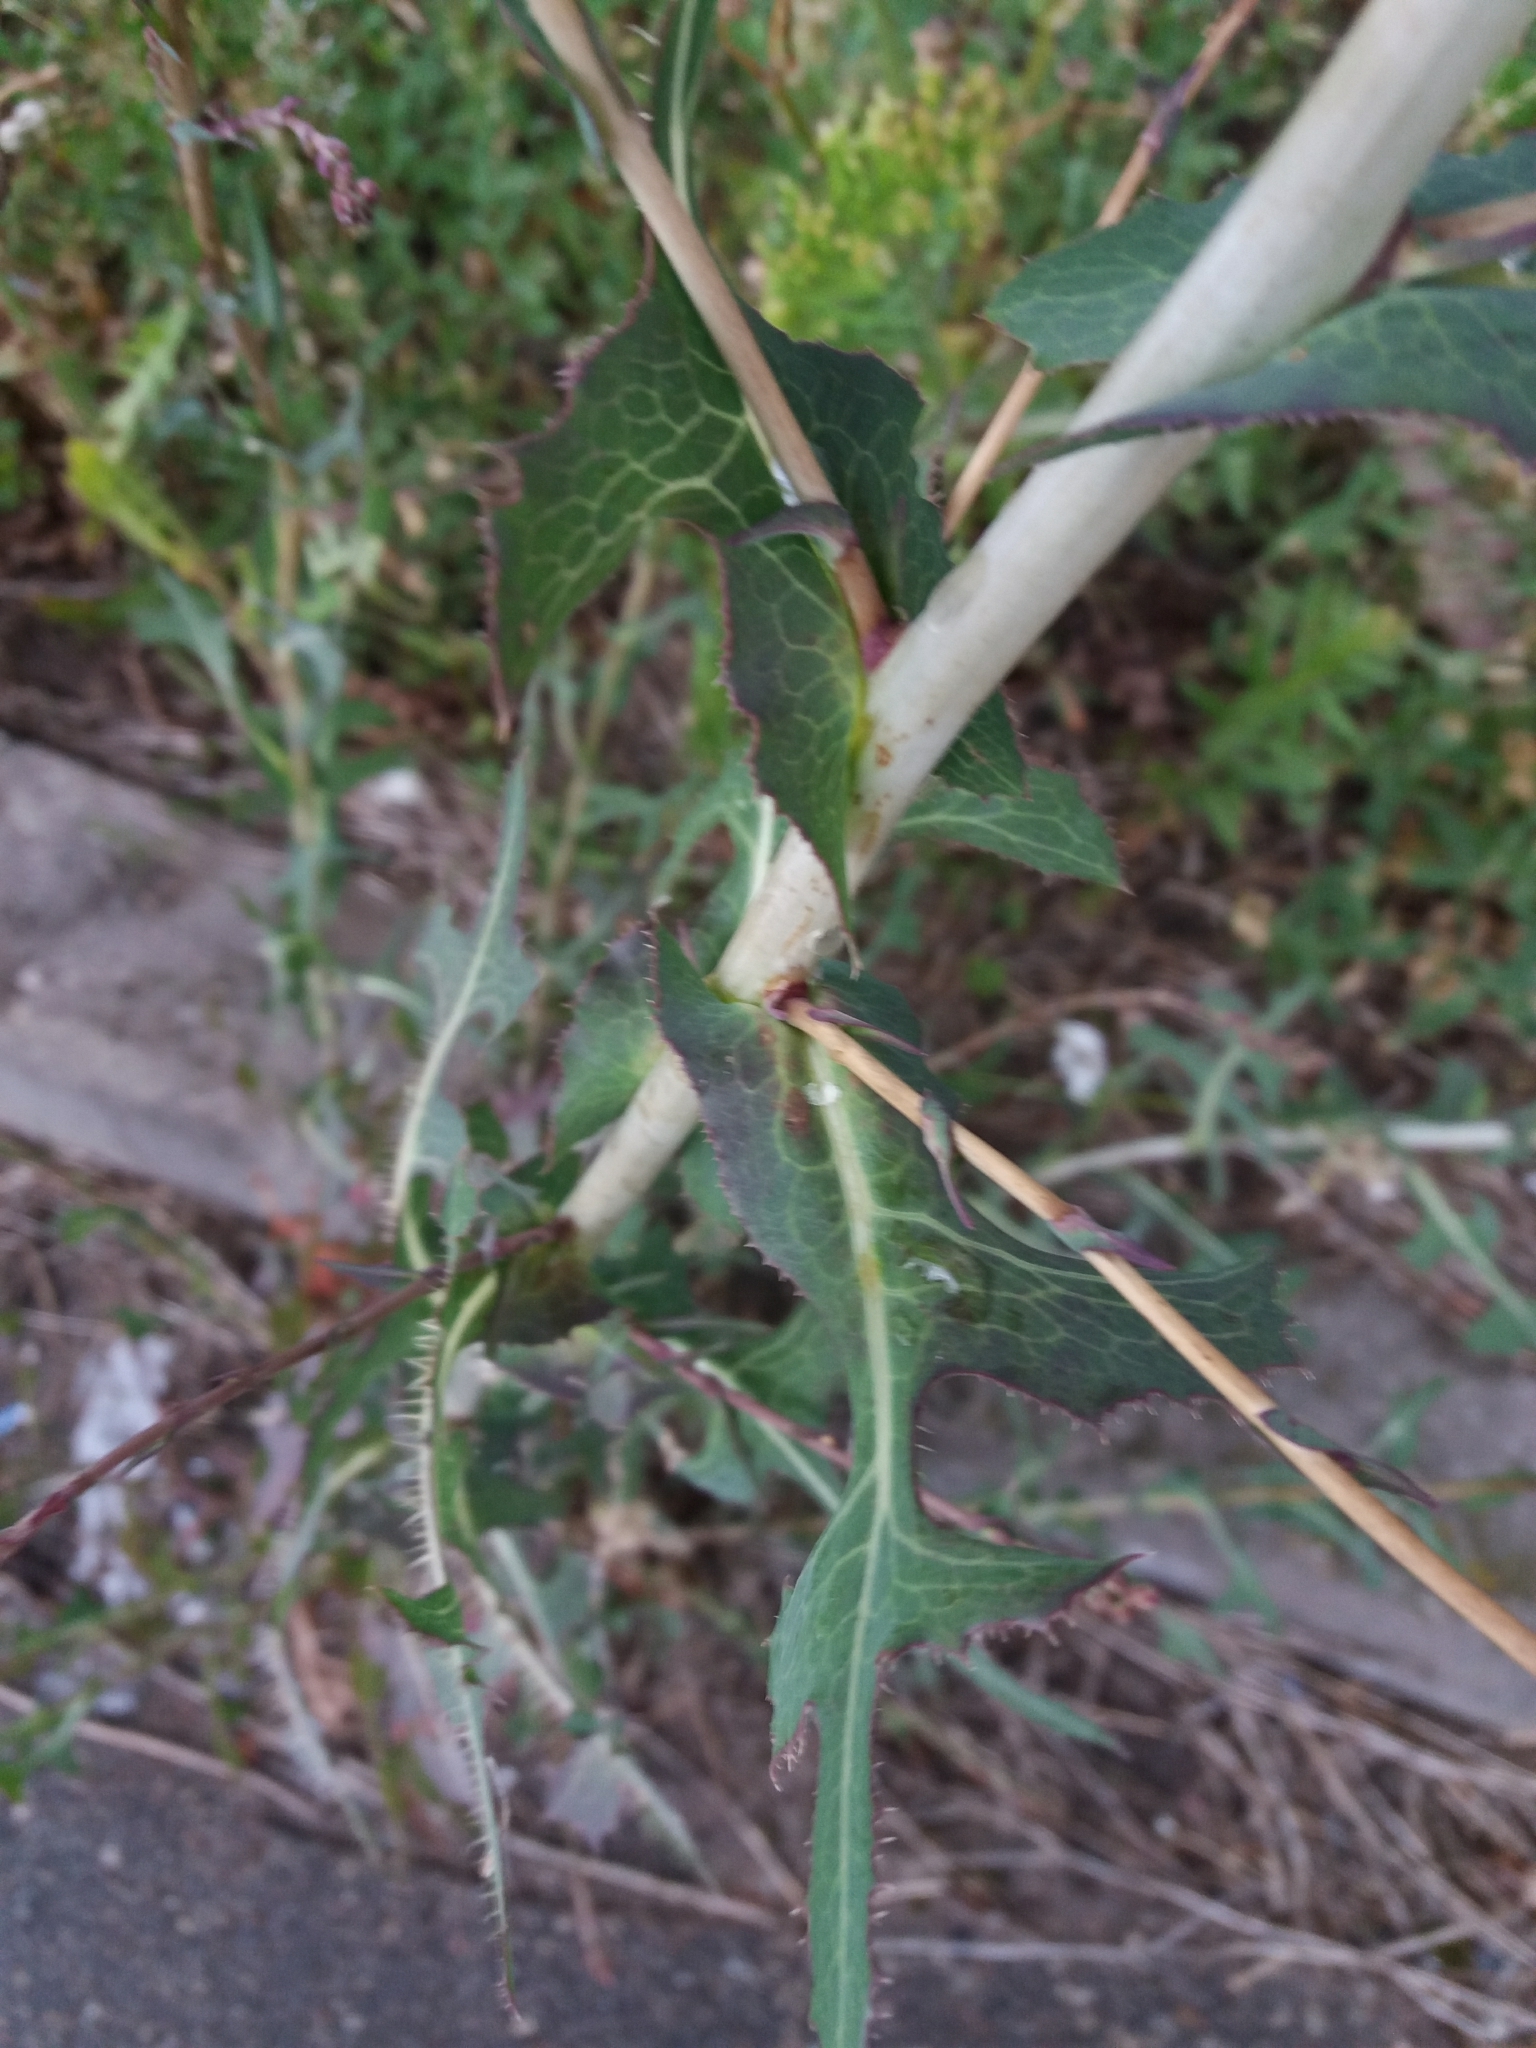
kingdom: Plantae
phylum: Tracheophyta
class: Magnoliopsida
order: Asterales
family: Asteraceae
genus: Lactuca
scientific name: Lactuca serriola
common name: Prickly lettuce
